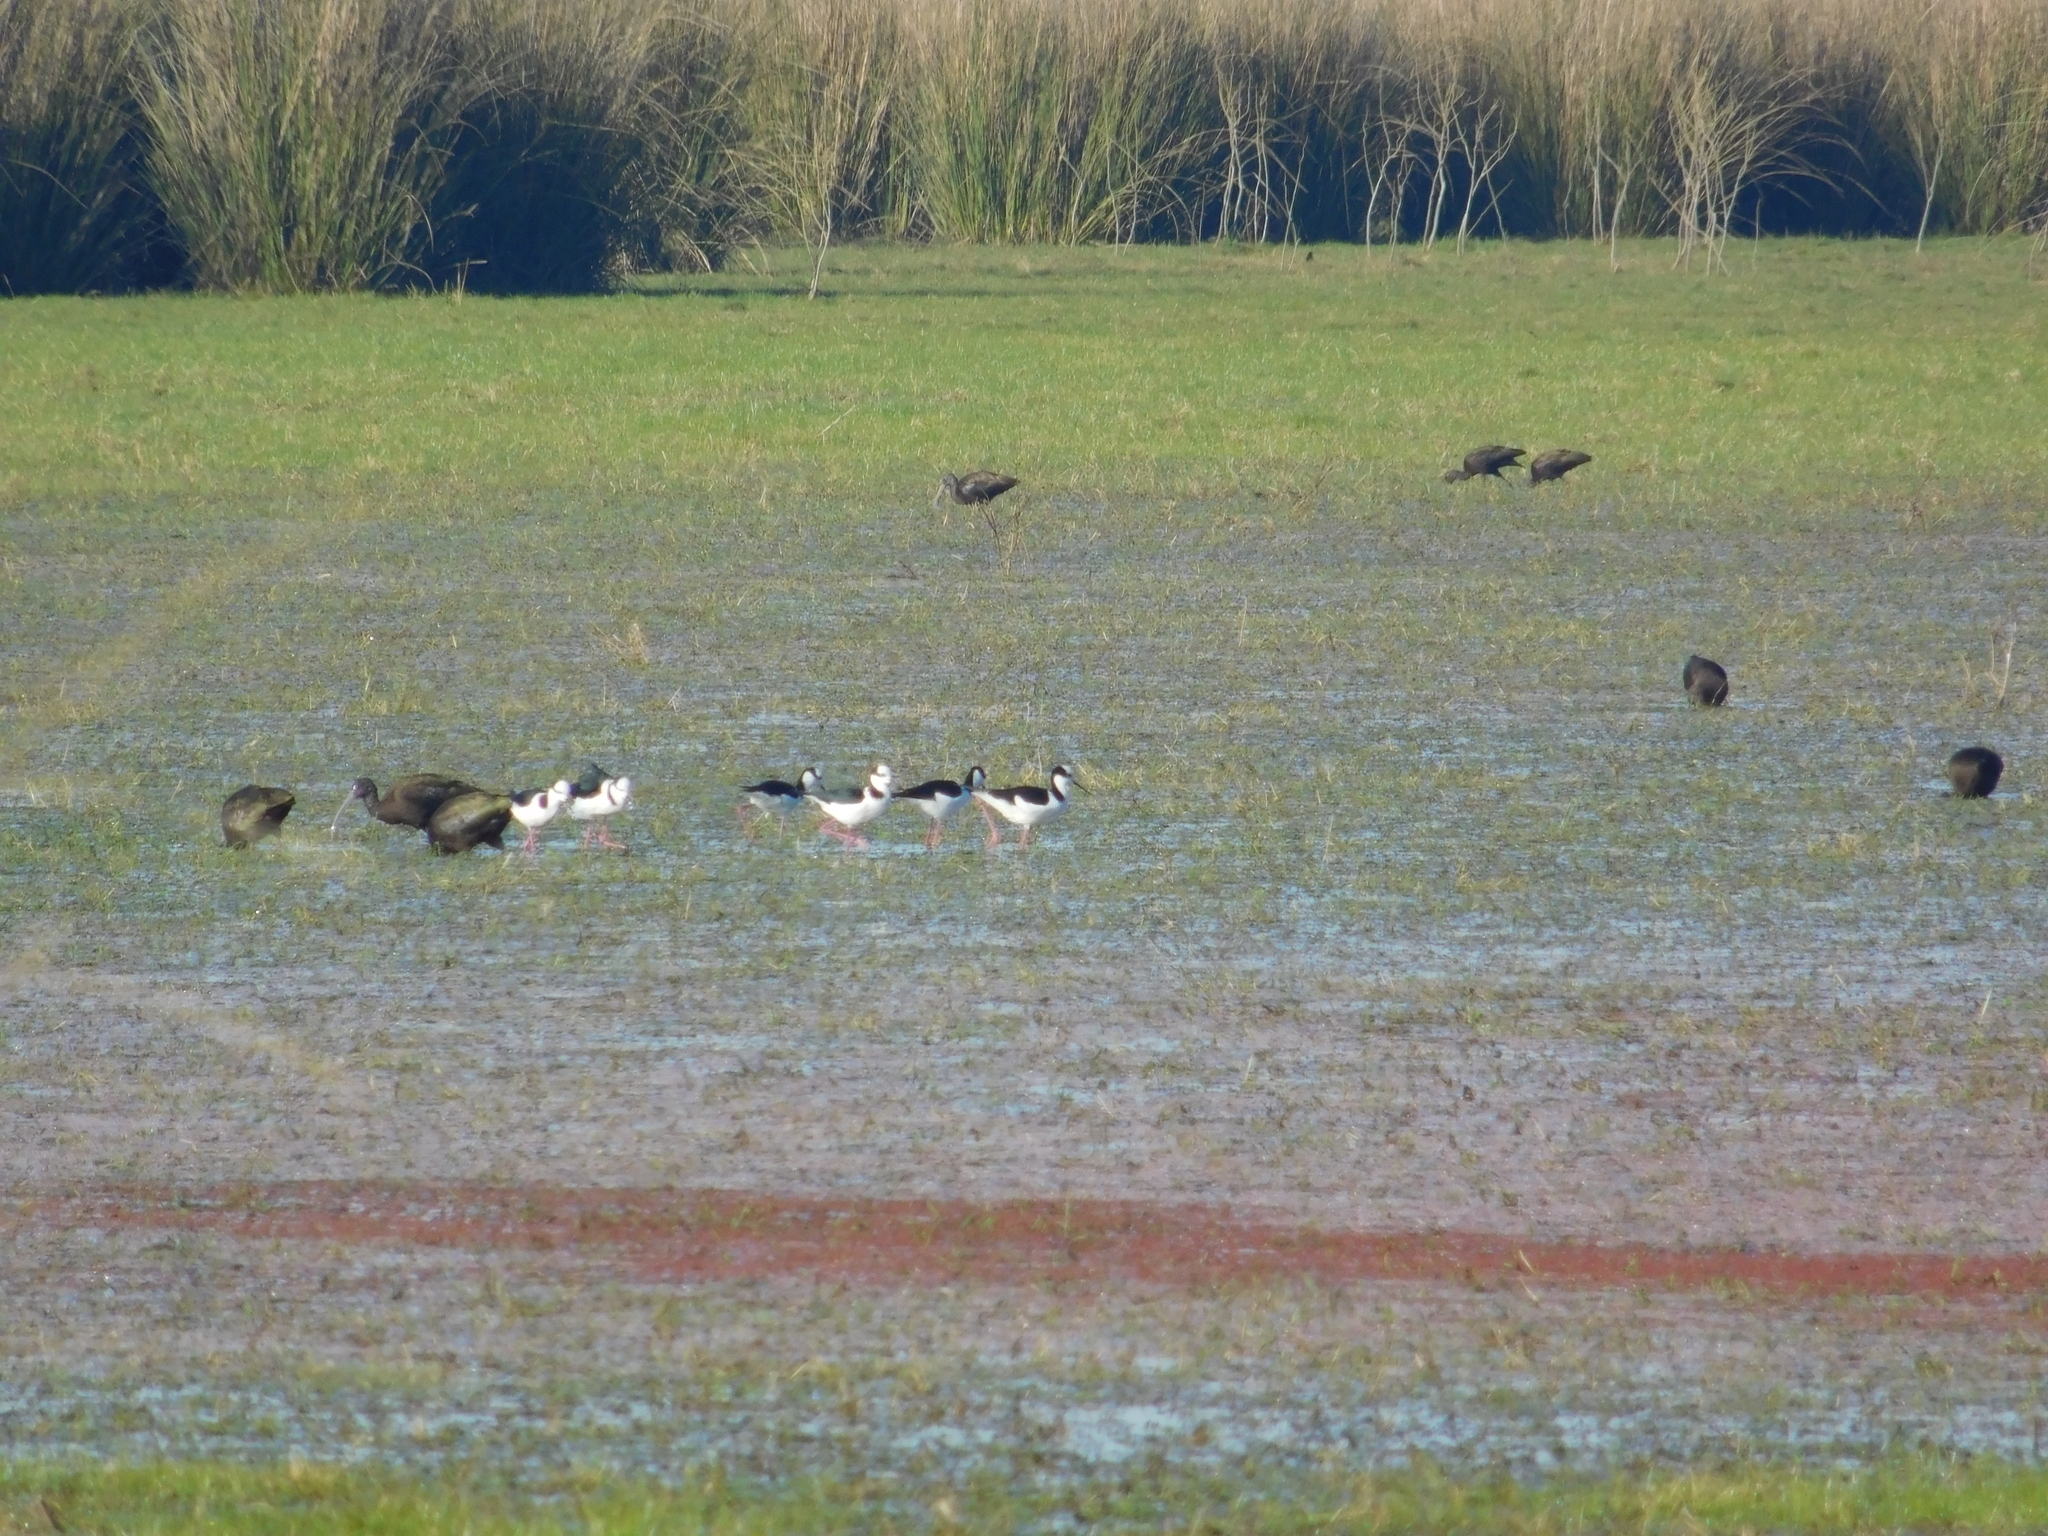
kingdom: Animalia
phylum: Chordata
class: Aves
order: Charadriiformes
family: Recurvirostridae
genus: Himantopus
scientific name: Himantopus mexicanus
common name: Black-necked stilt
